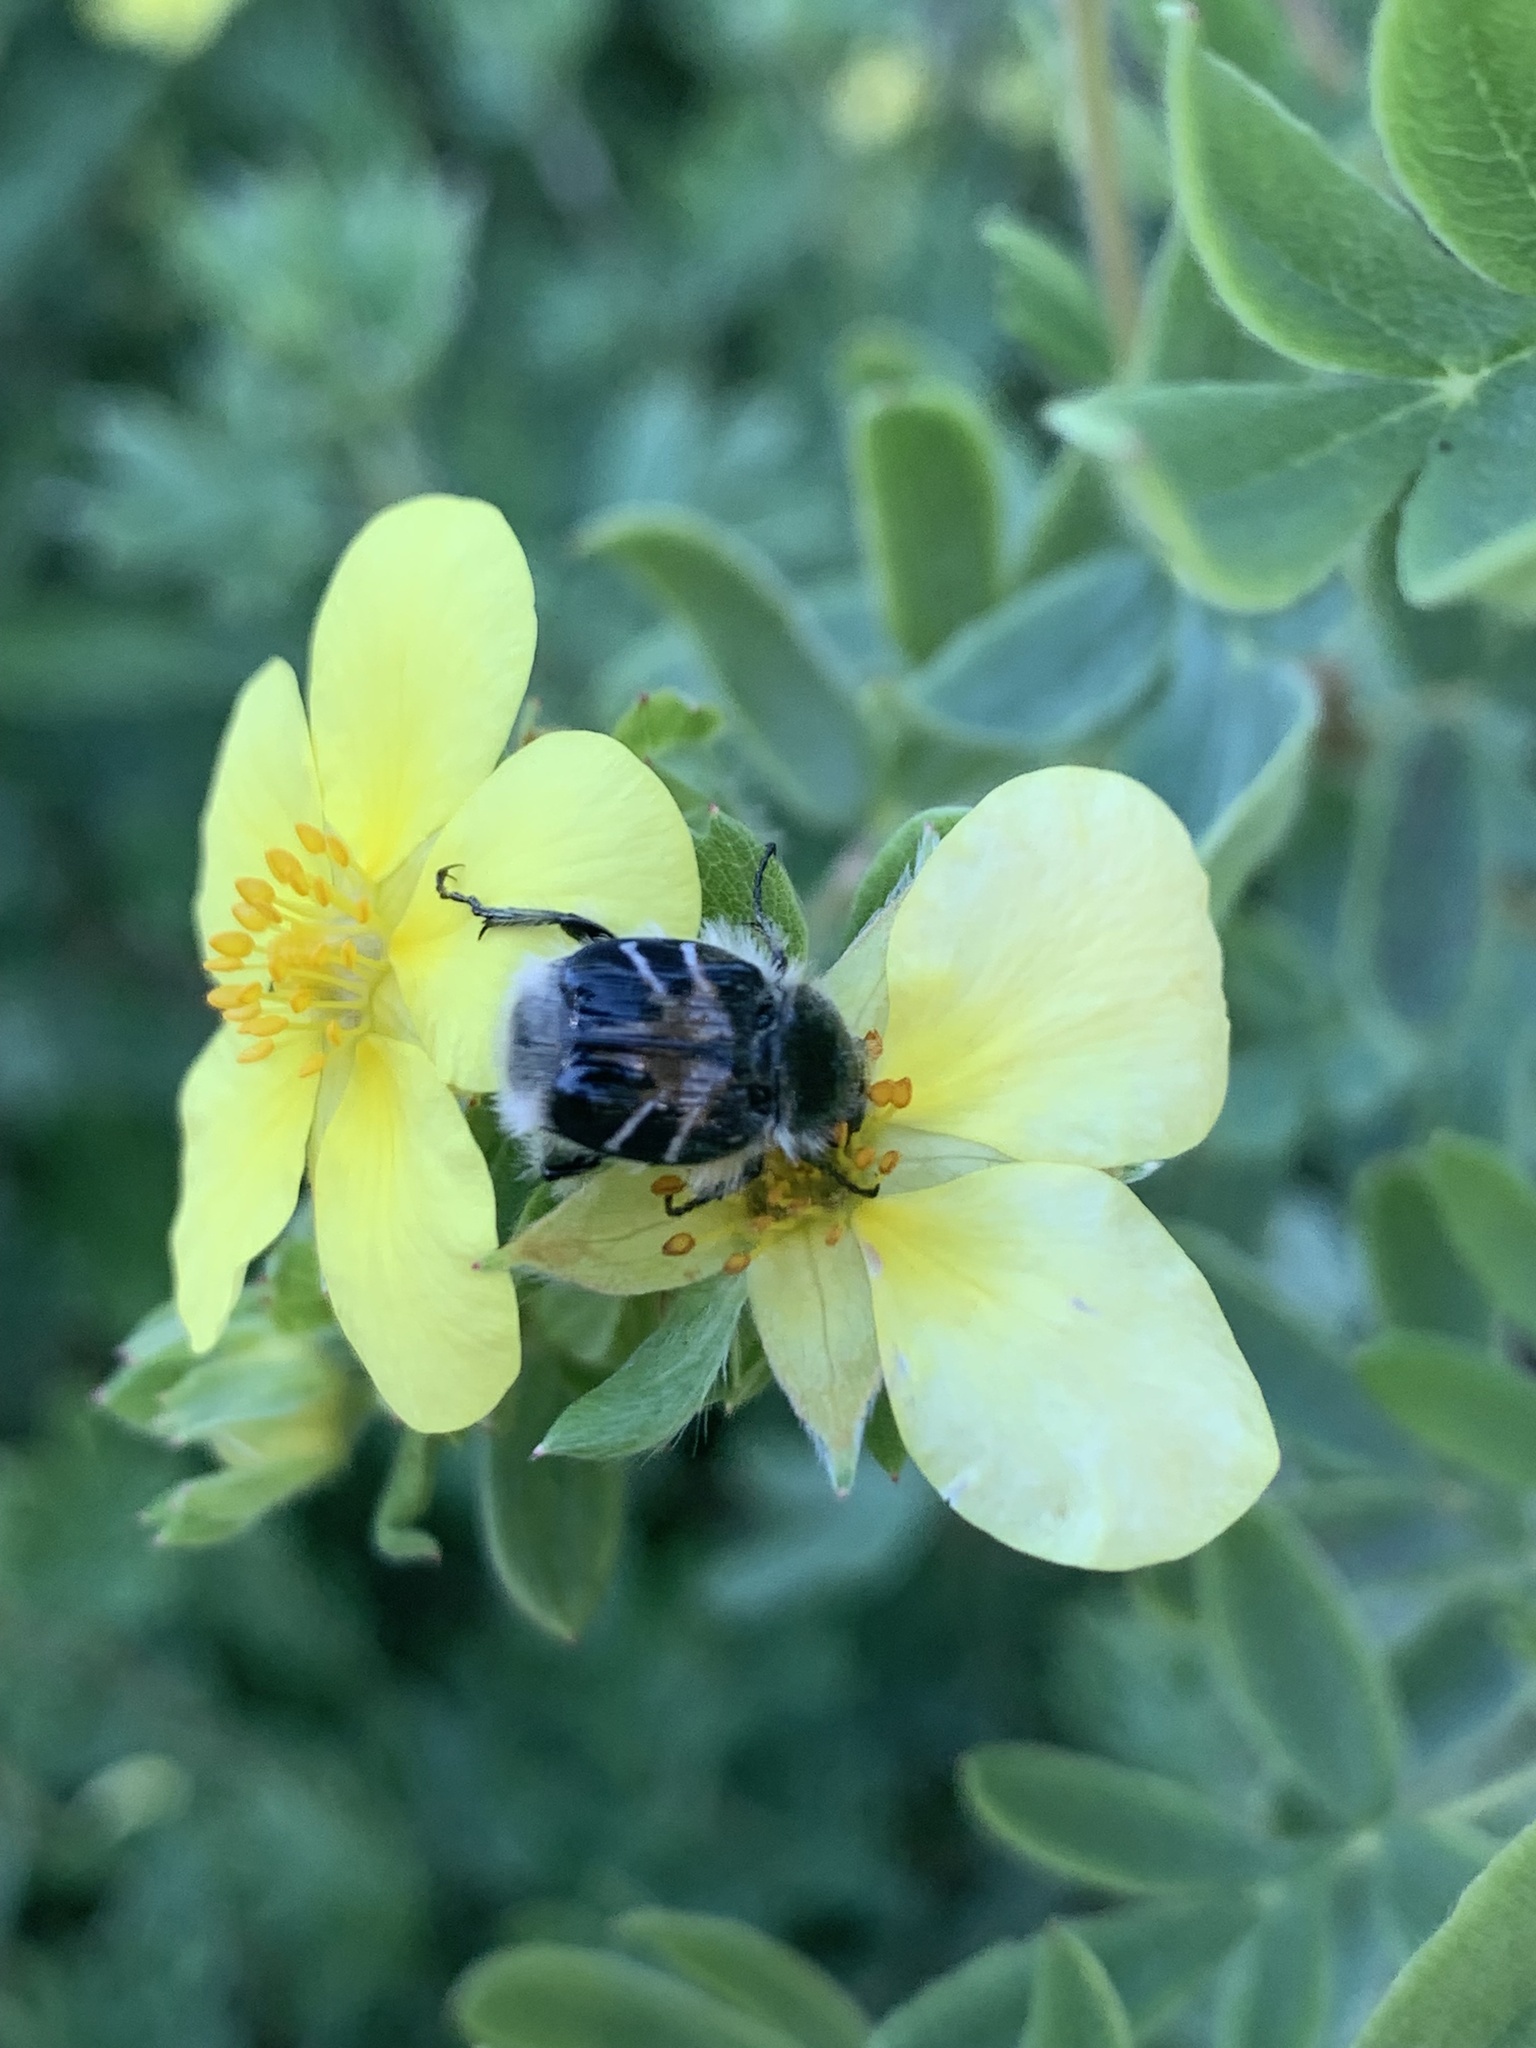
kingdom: Animalia
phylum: Arthropoda
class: Insecta
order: Coleoptera
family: Scarabaeidae
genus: Trichiotinus
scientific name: Trichiotinus assimilis
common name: Bee-mimic beetle
